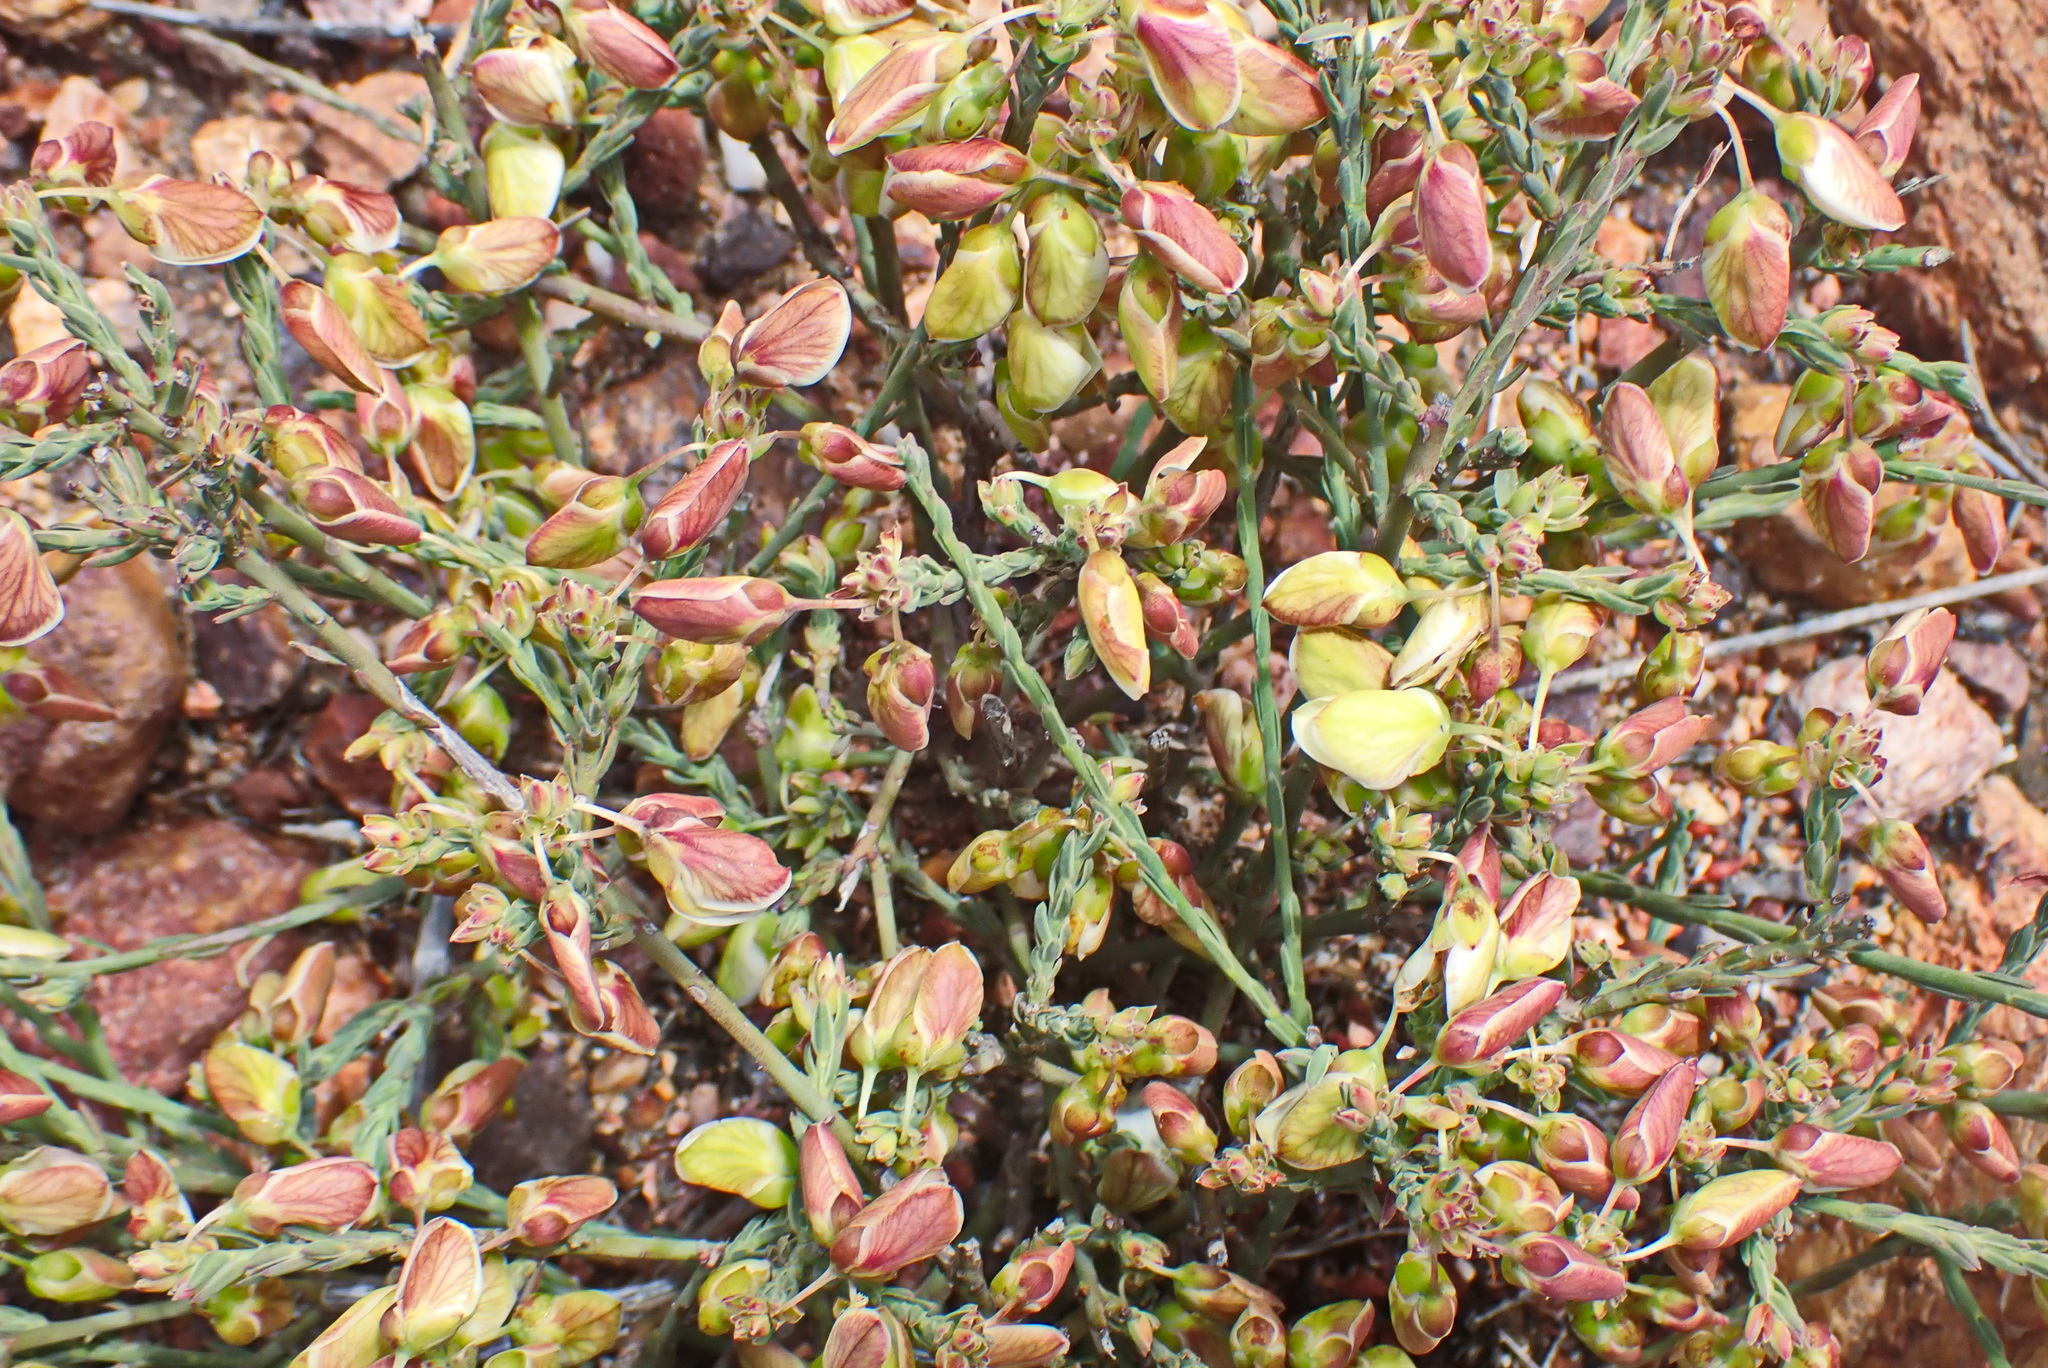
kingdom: Plantae
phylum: Tracheophyta
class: Magnoliopsida
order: Fabales
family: Polygalaceae
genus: Polygala
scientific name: Polygala wittebergensis
